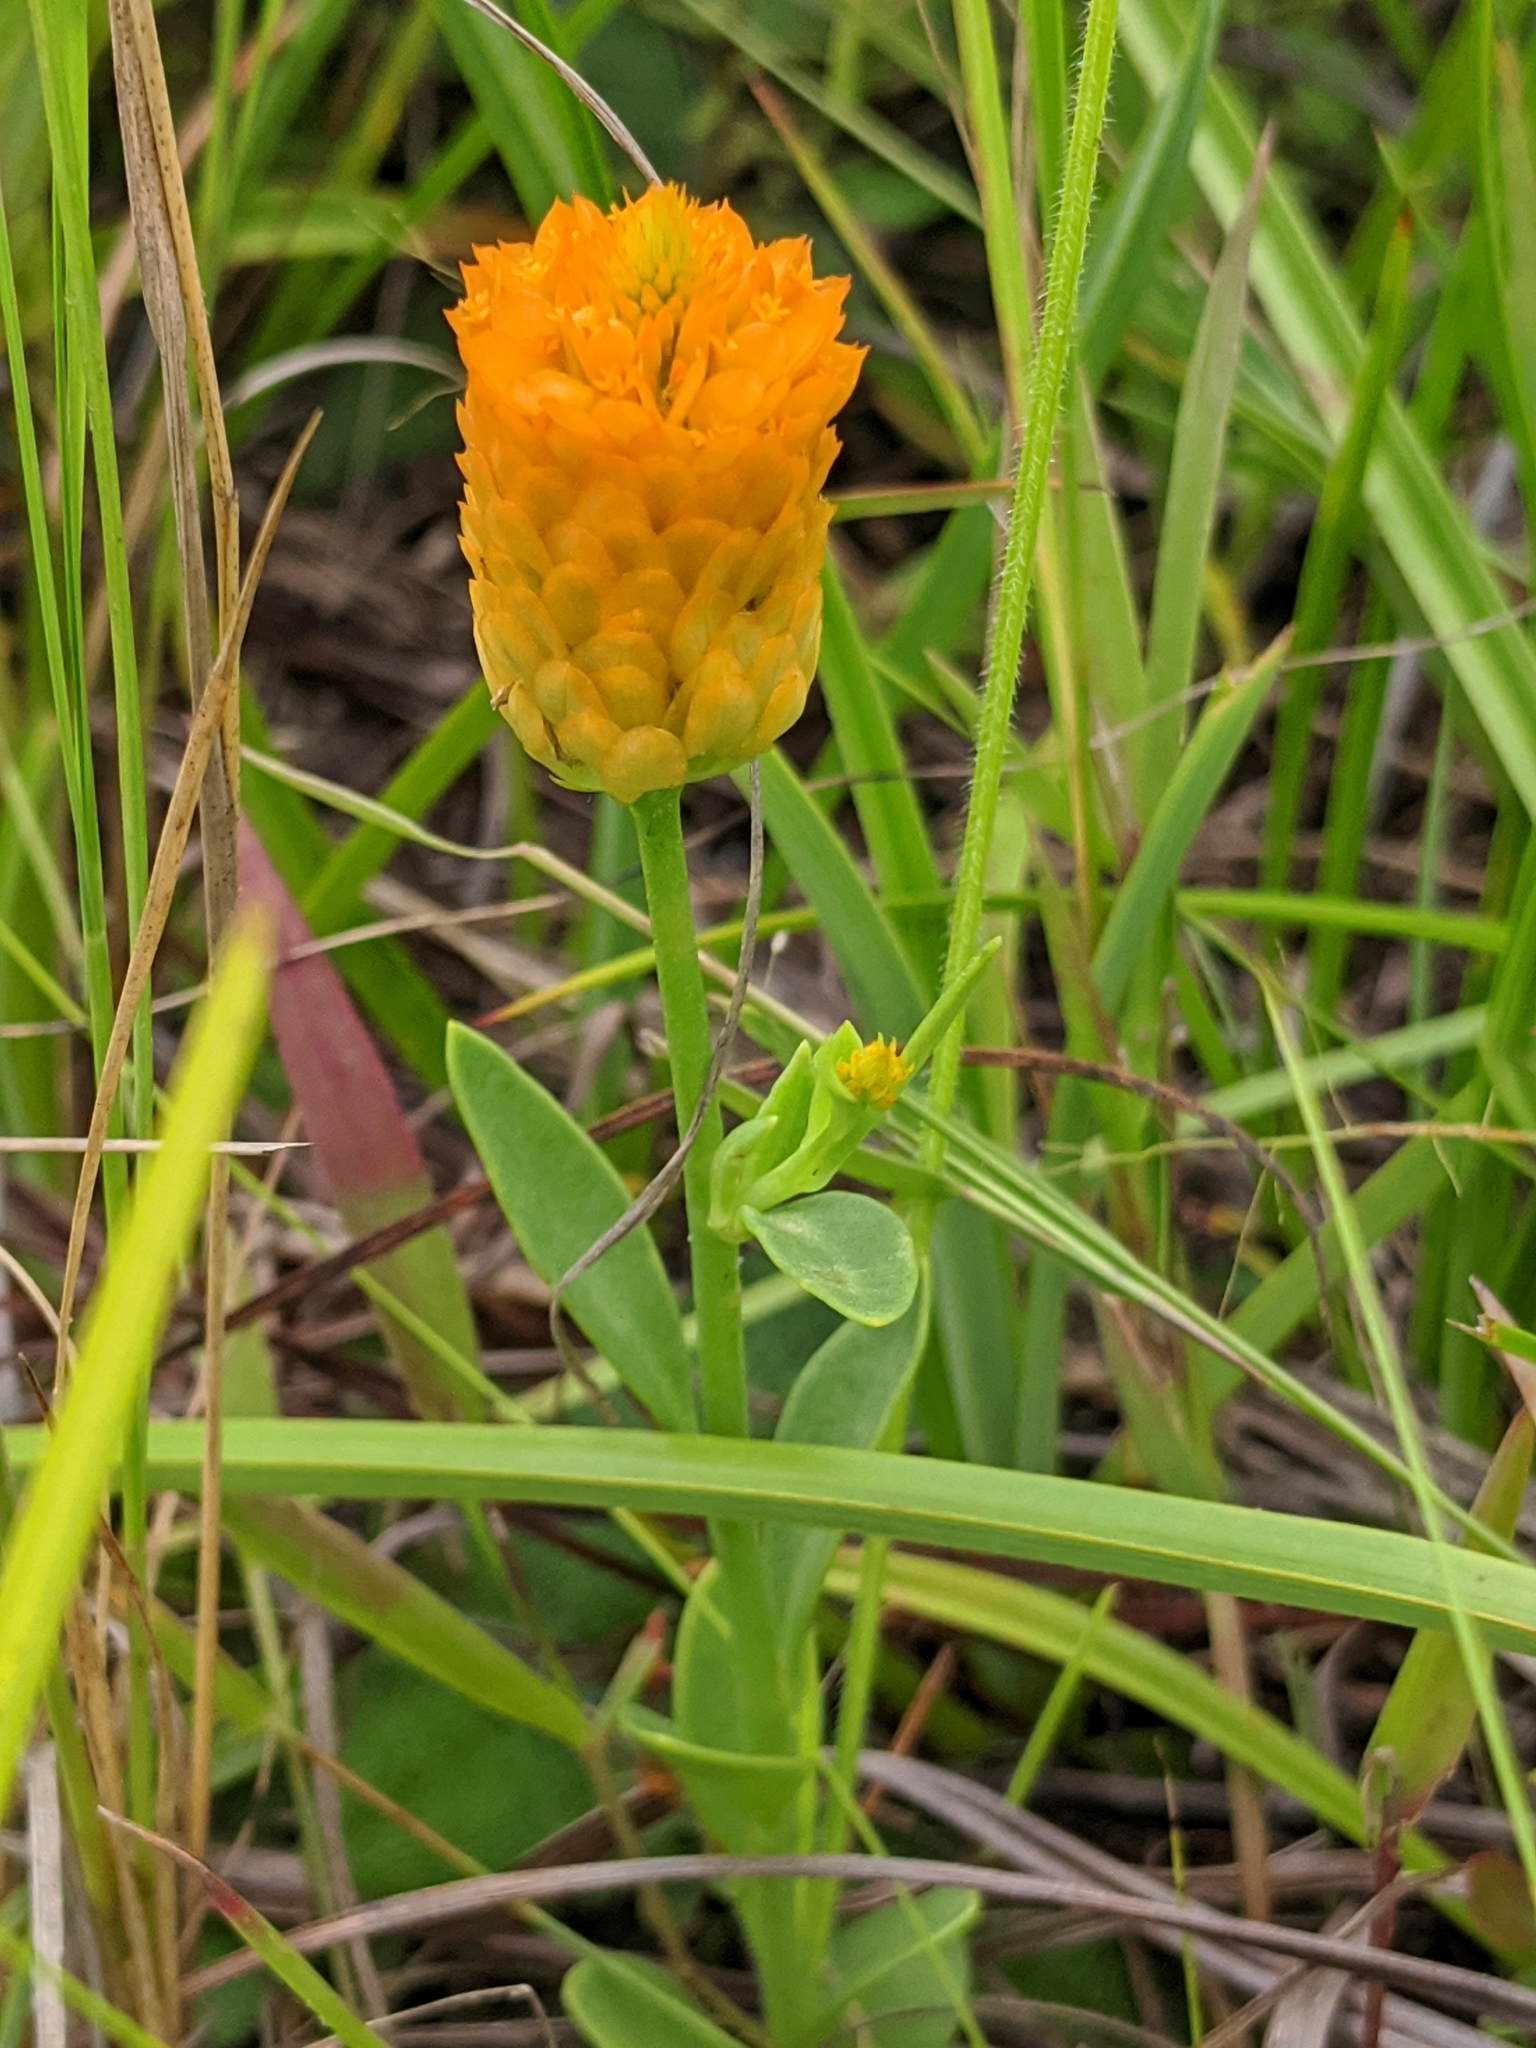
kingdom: Plantae
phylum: Tracheophyta
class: Magnoliopsida
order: Fabales
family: Polygalaceae
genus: Polygala
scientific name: Polygala lutea
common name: Orange milkwort
